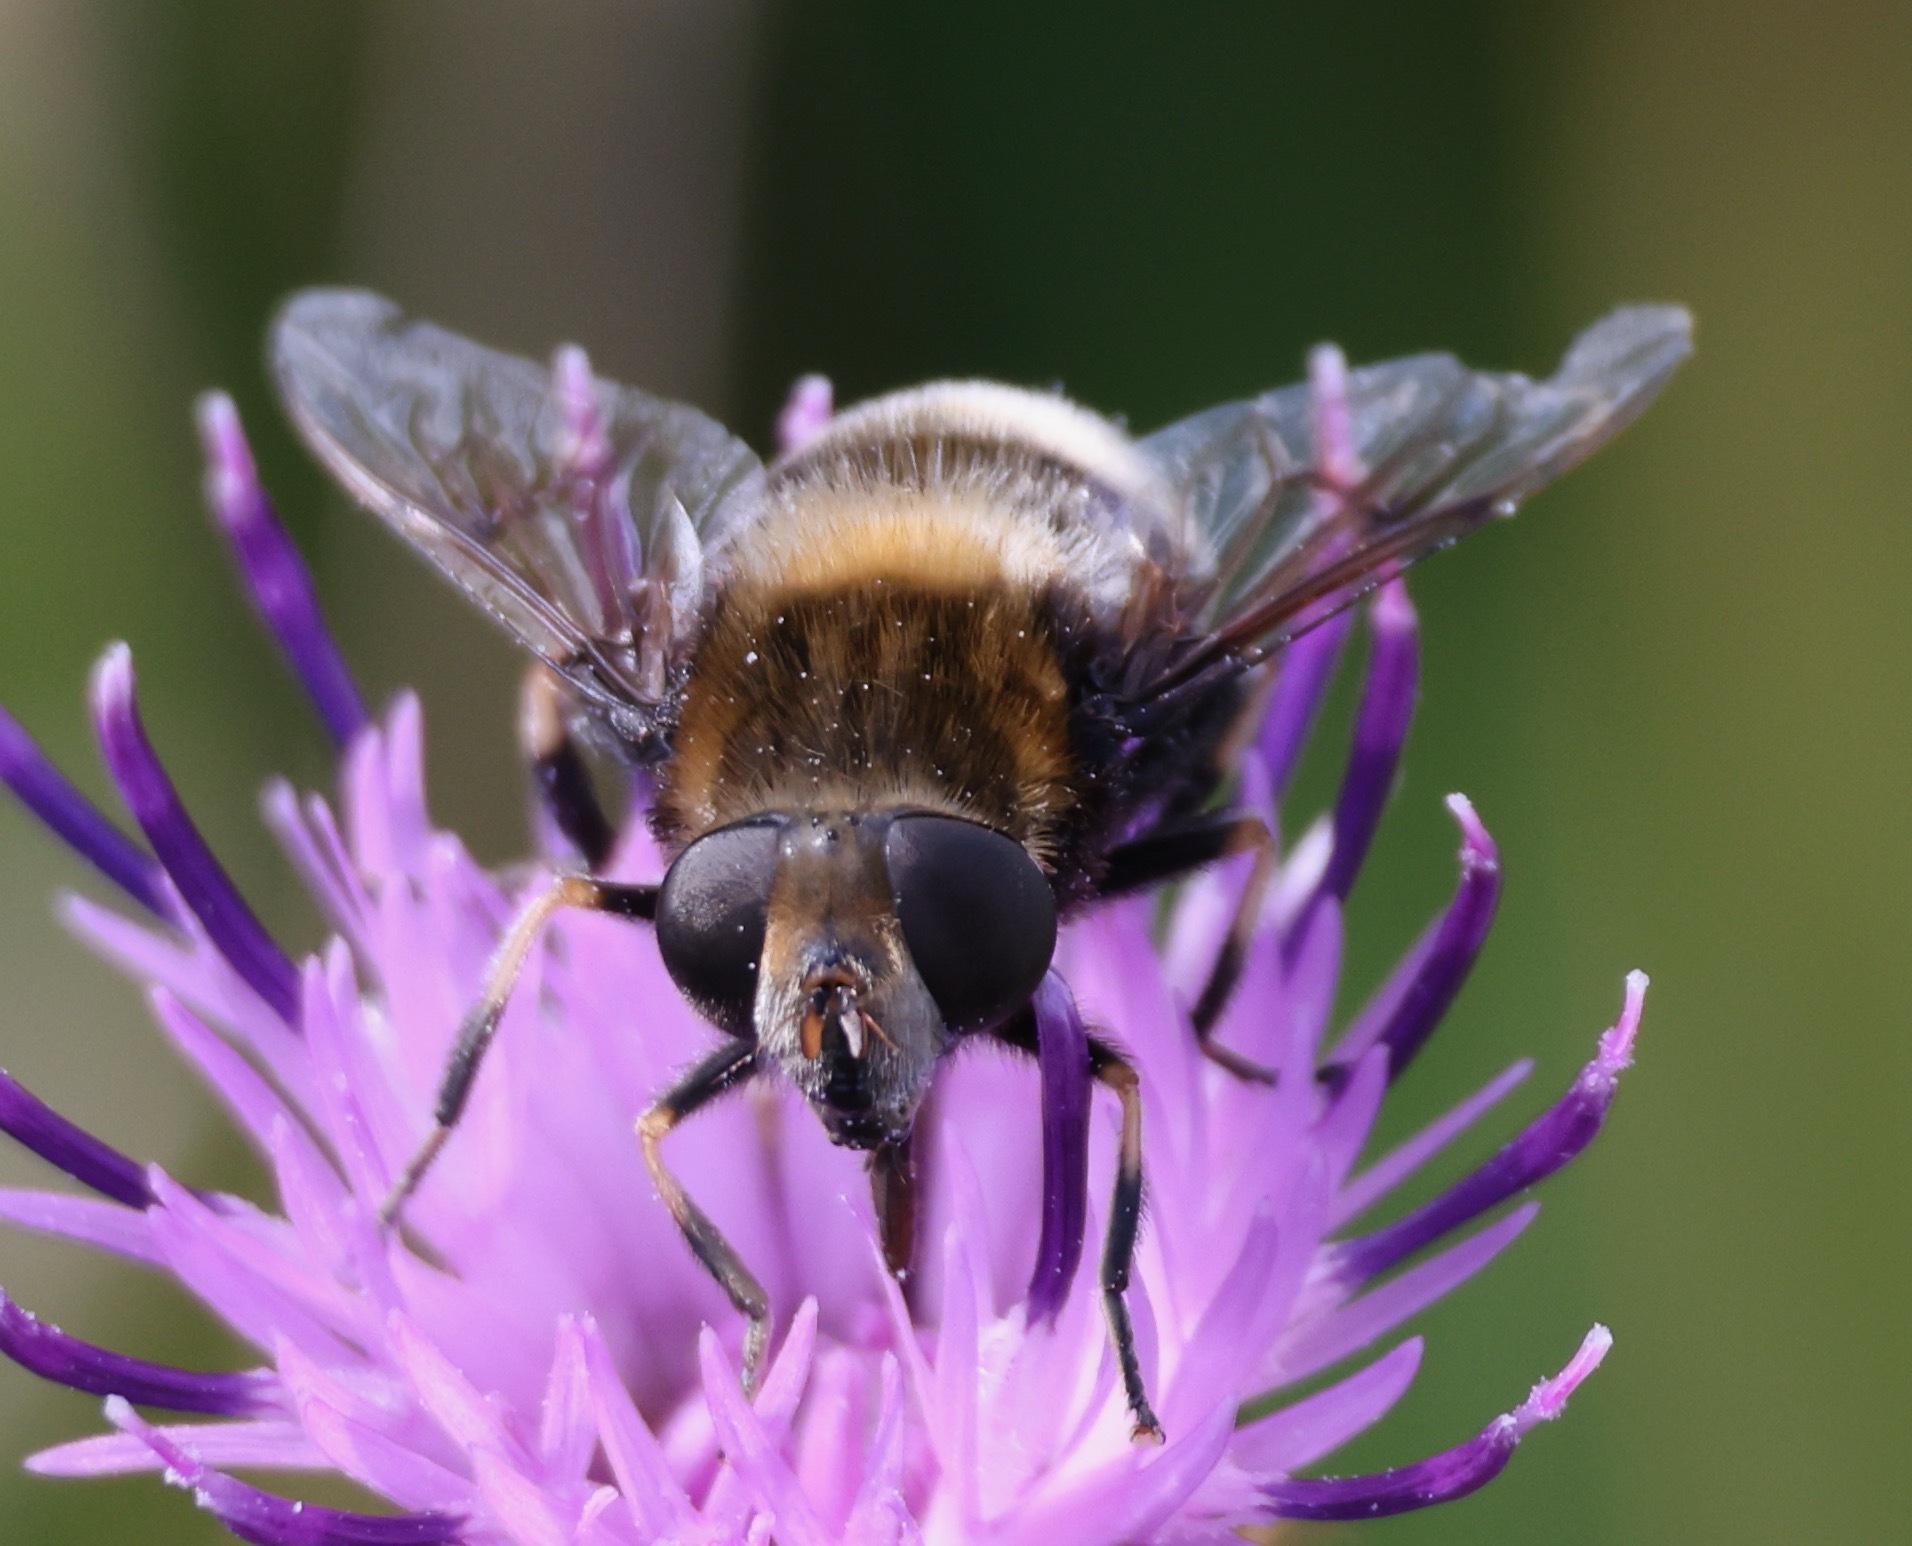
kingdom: Animalia
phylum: Arthropoda
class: Insecta
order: Diptera
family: Syrphidae
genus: Eristalis
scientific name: Eristalis intricaria
